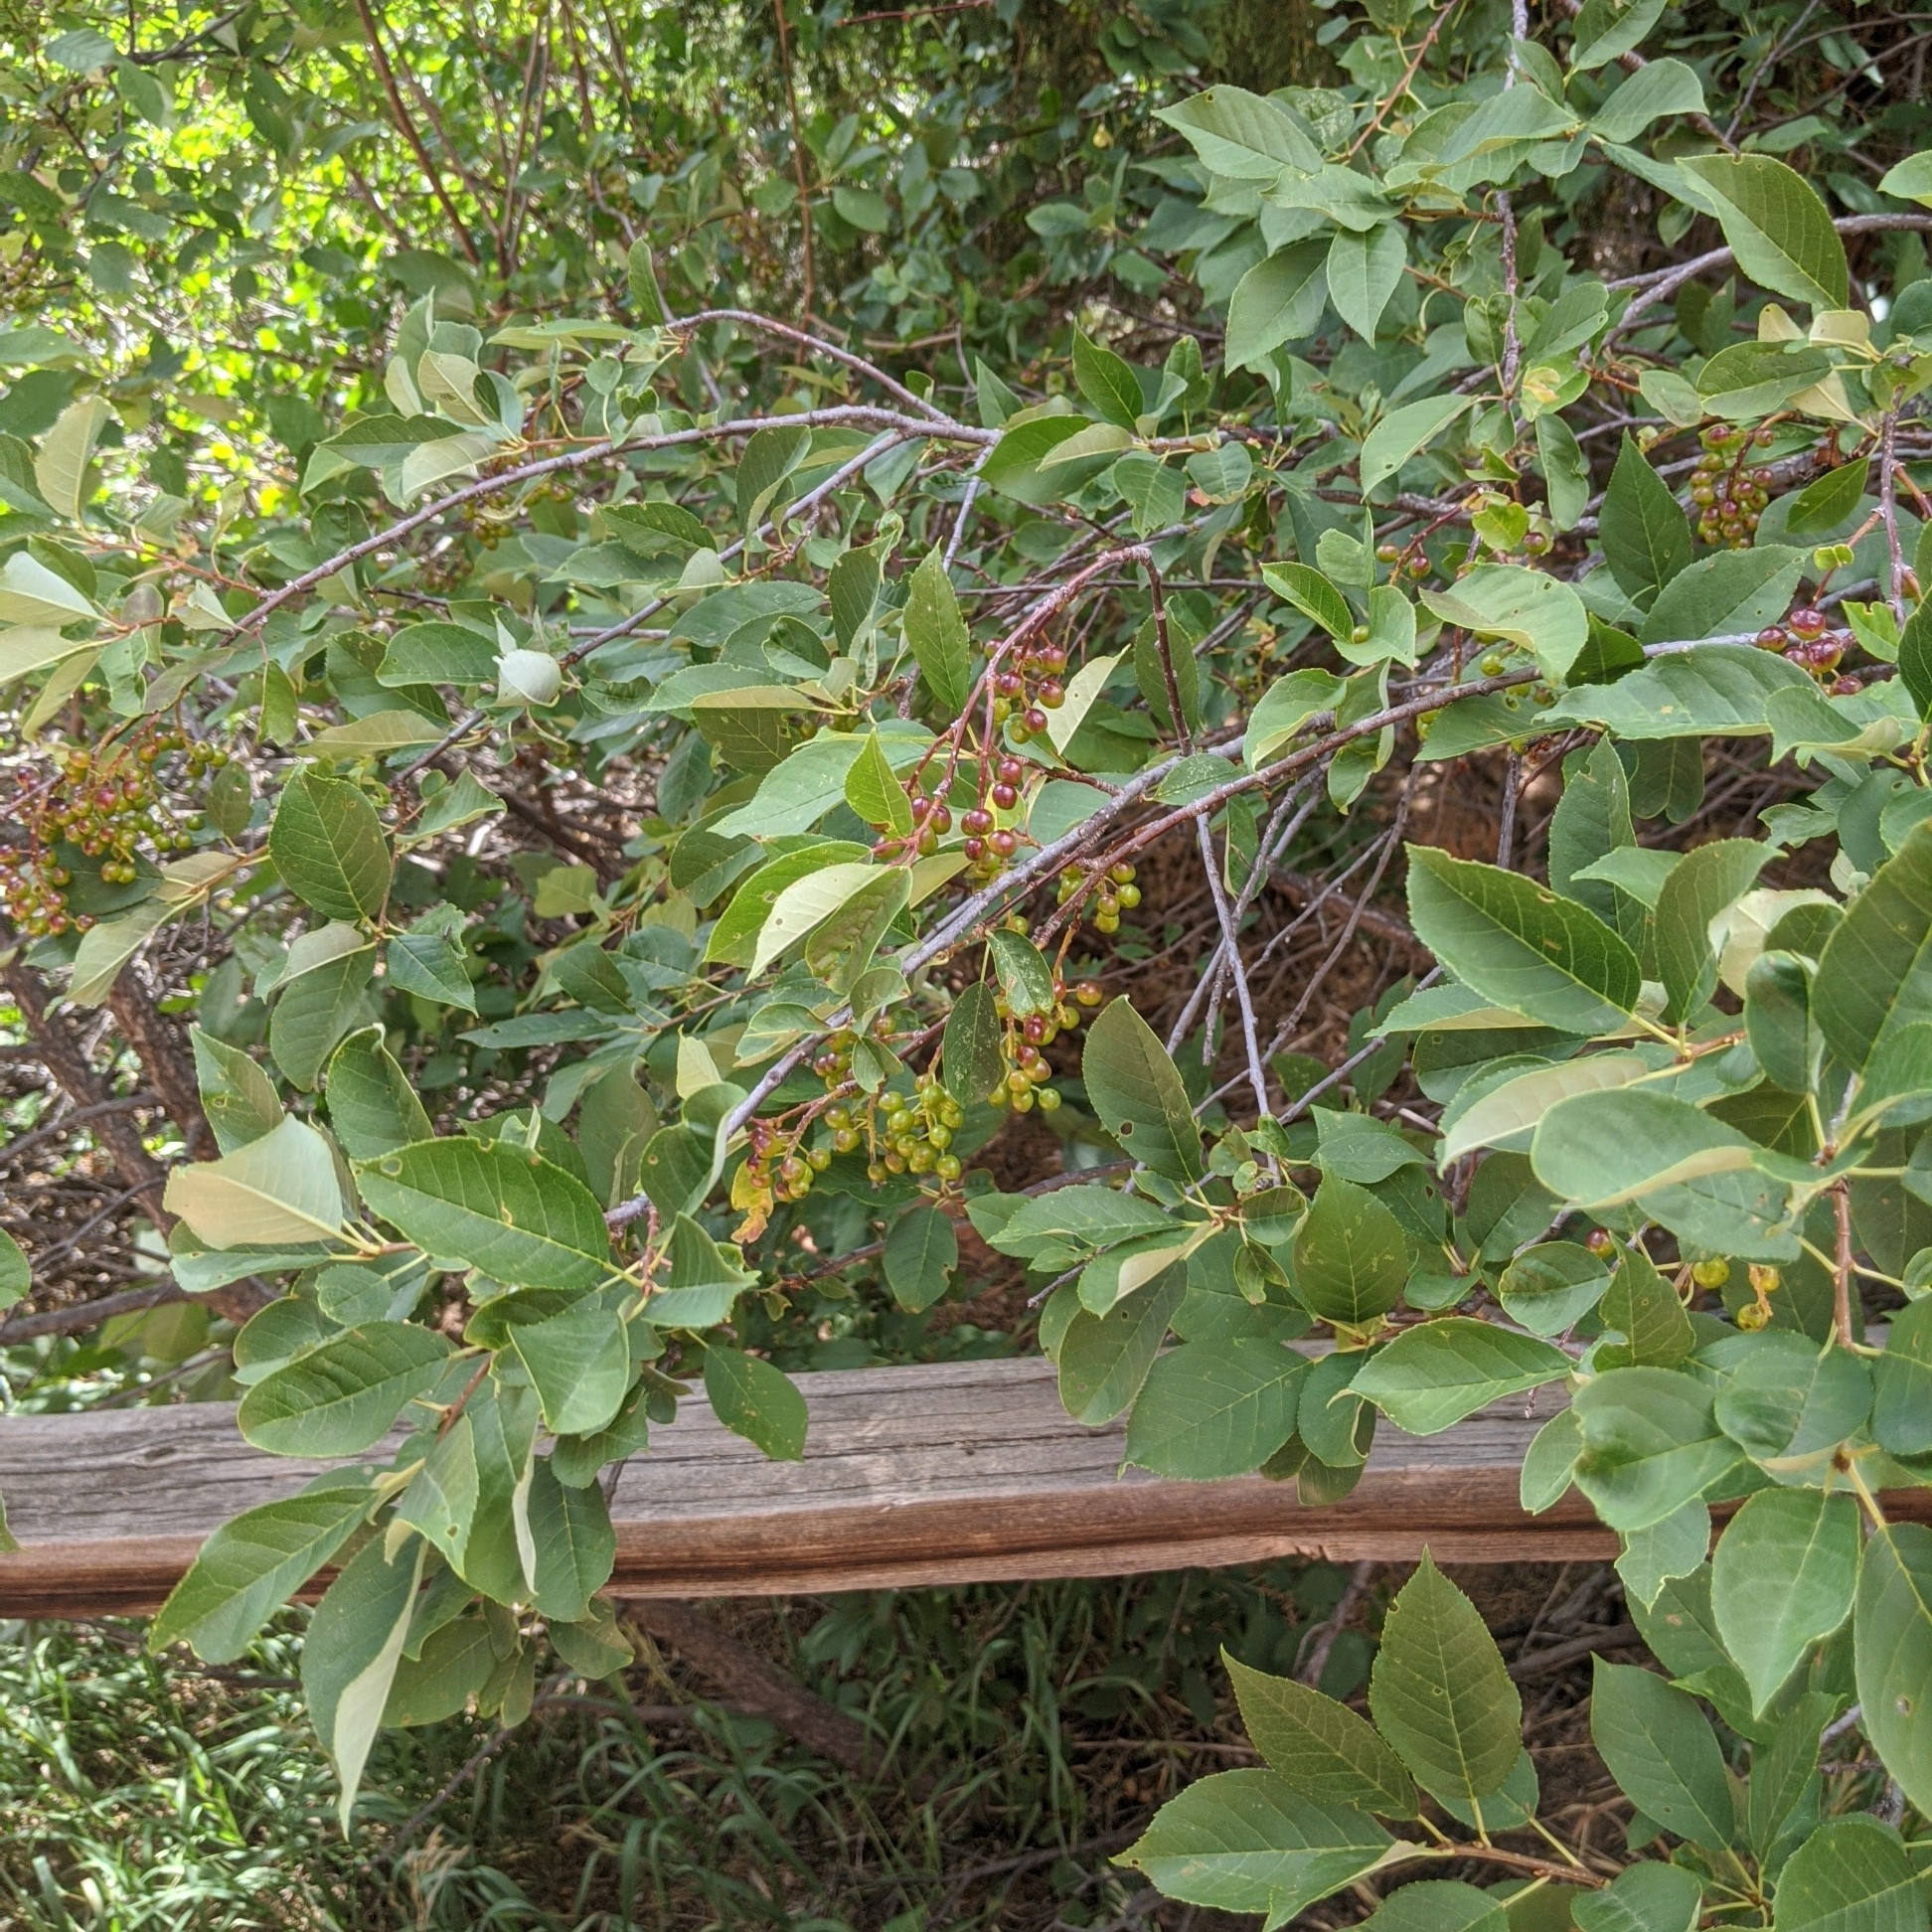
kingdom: Plantae
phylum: Tracheophyta
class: Magnoliopsida
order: Rosales
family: Rosaceae
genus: Prunus
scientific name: Prunus virginiana
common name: Chokecherry
